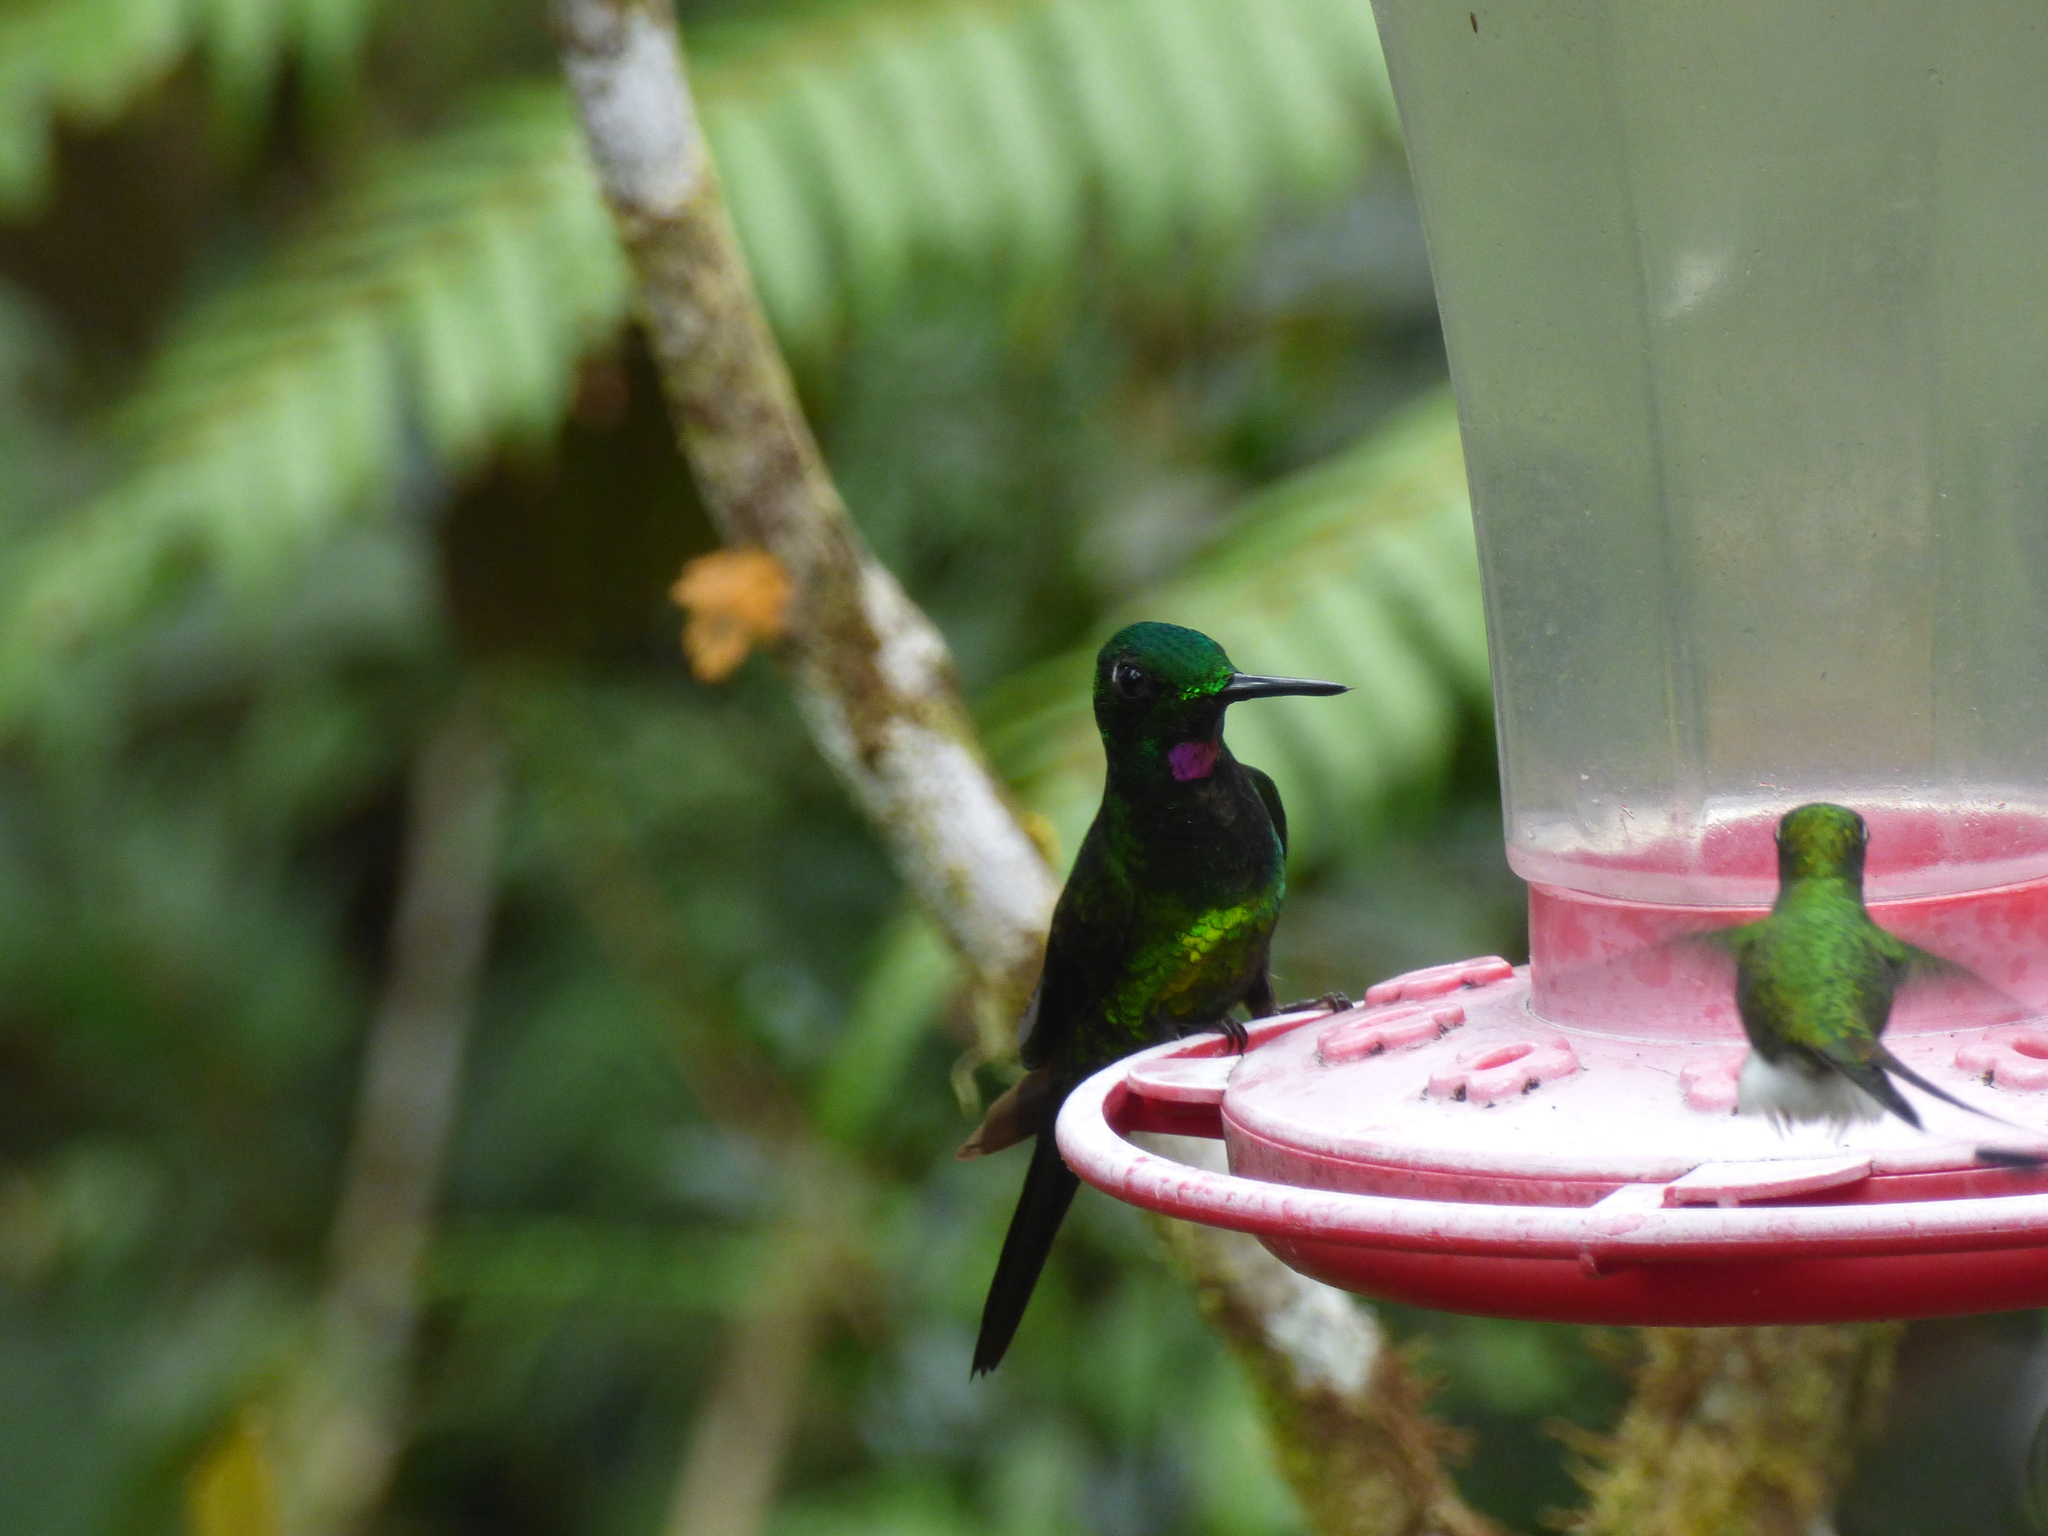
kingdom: Animalia
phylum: Chordata
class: Aves
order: Apodiformes
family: Trochilidae
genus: Heliodoxa
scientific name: Heliodoxa imperatrix
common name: Empress brilliant
